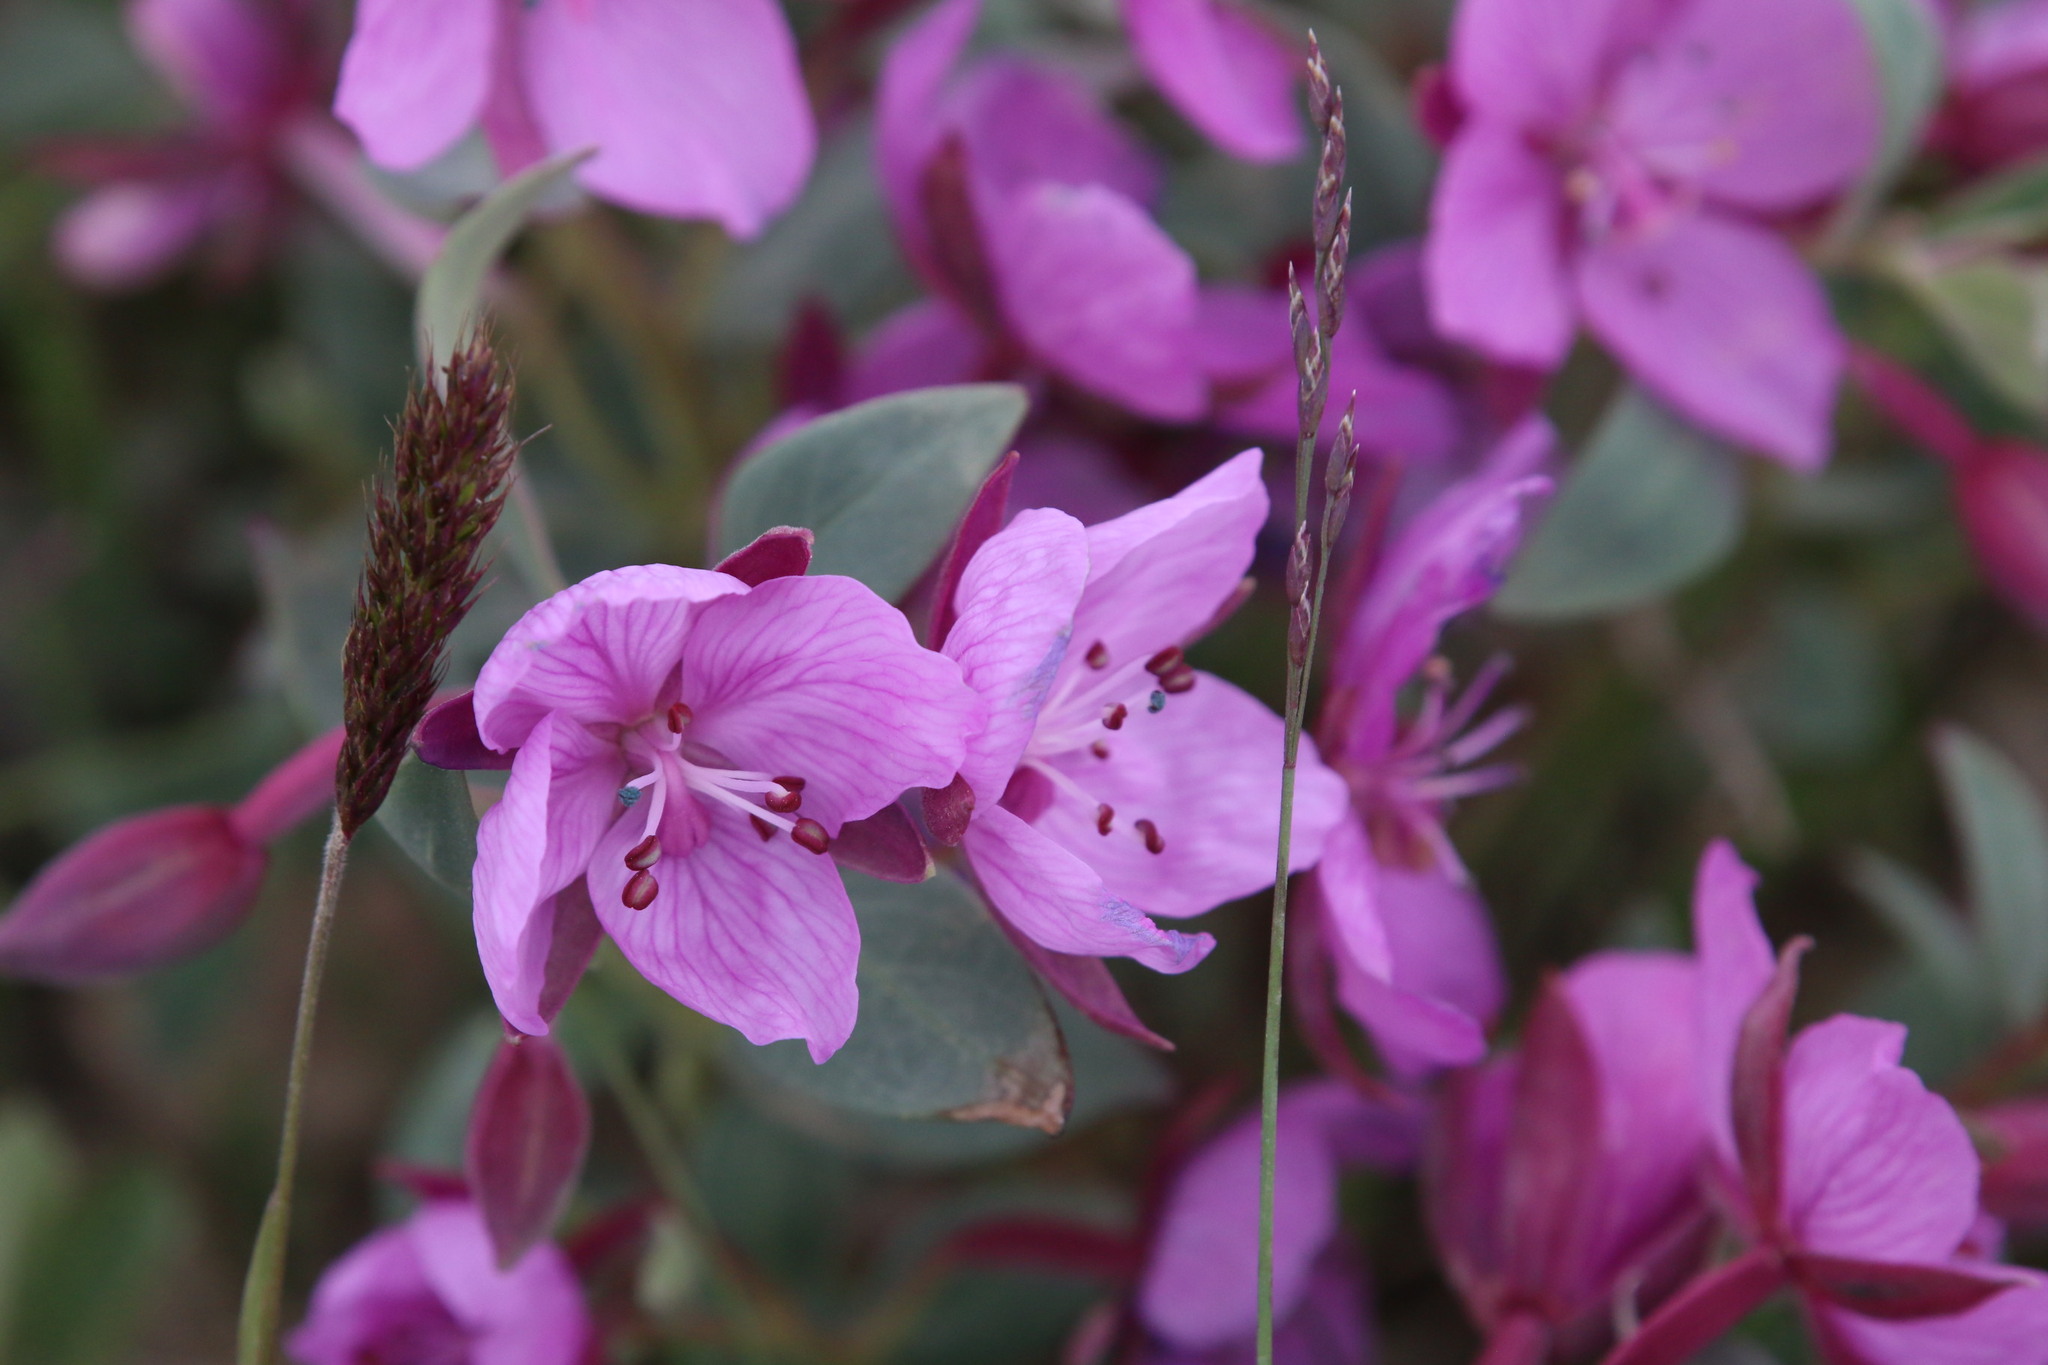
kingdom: Plantae
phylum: Tracheophyta
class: Magnoliopsida
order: Myrtales
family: Onagraceae
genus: Chamaenerion
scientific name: Chamaenerion latifolium
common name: Dwarf fireweed
